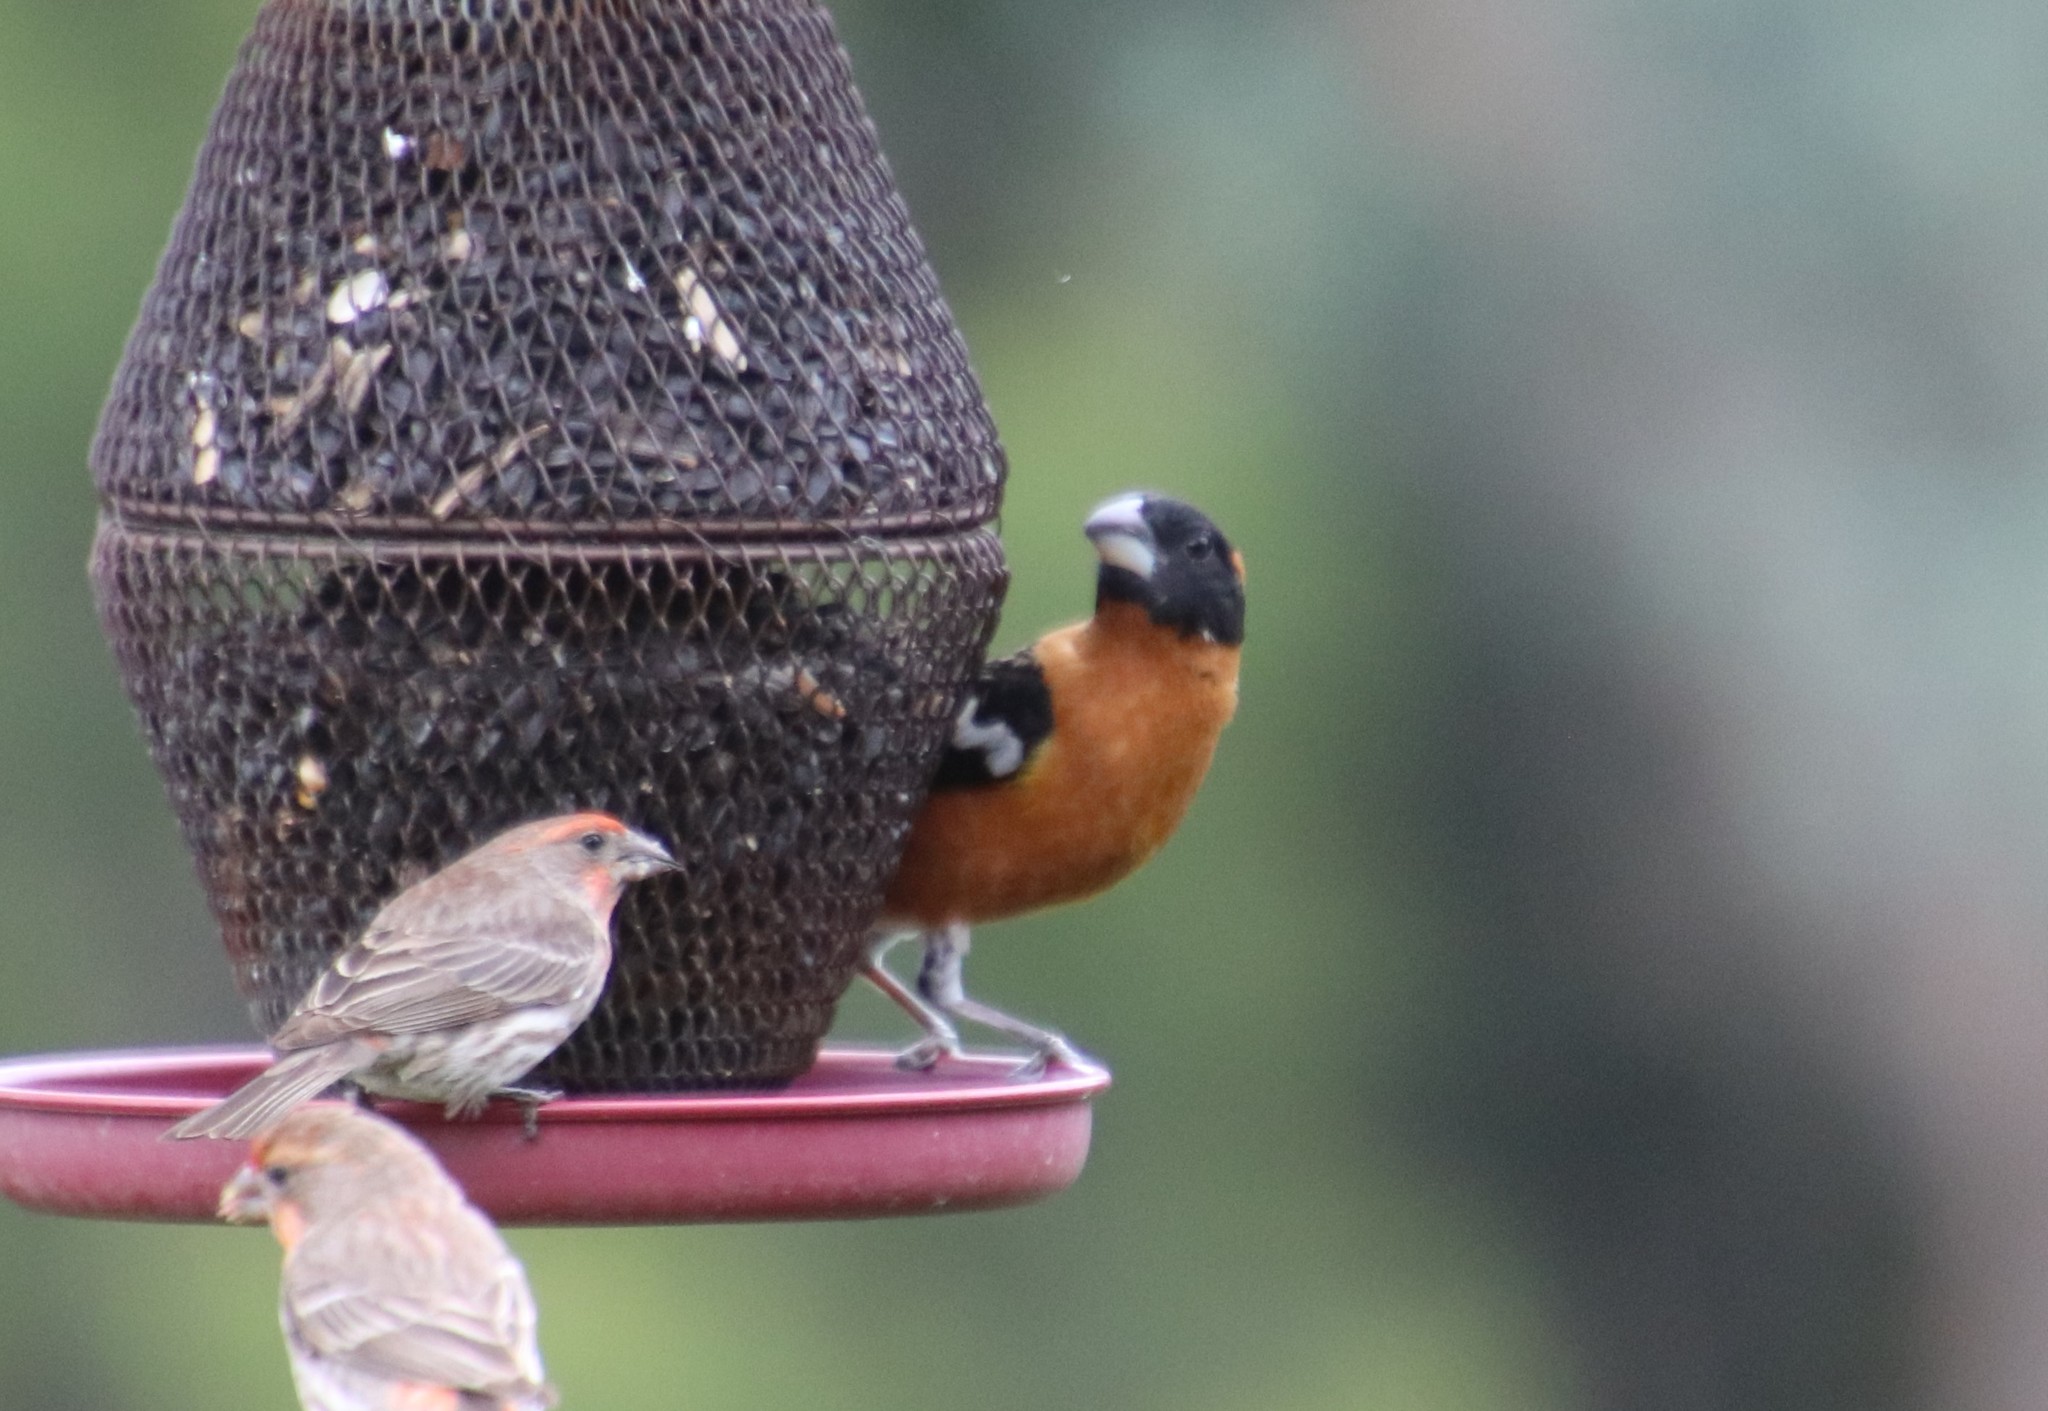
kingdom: Animalia
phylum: Chordata
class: Aves
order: Passeriformes
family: Cardinalidae
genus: Pheucticus
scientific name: Pheucticus melanocephalus
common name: Black-headed grosbeak
